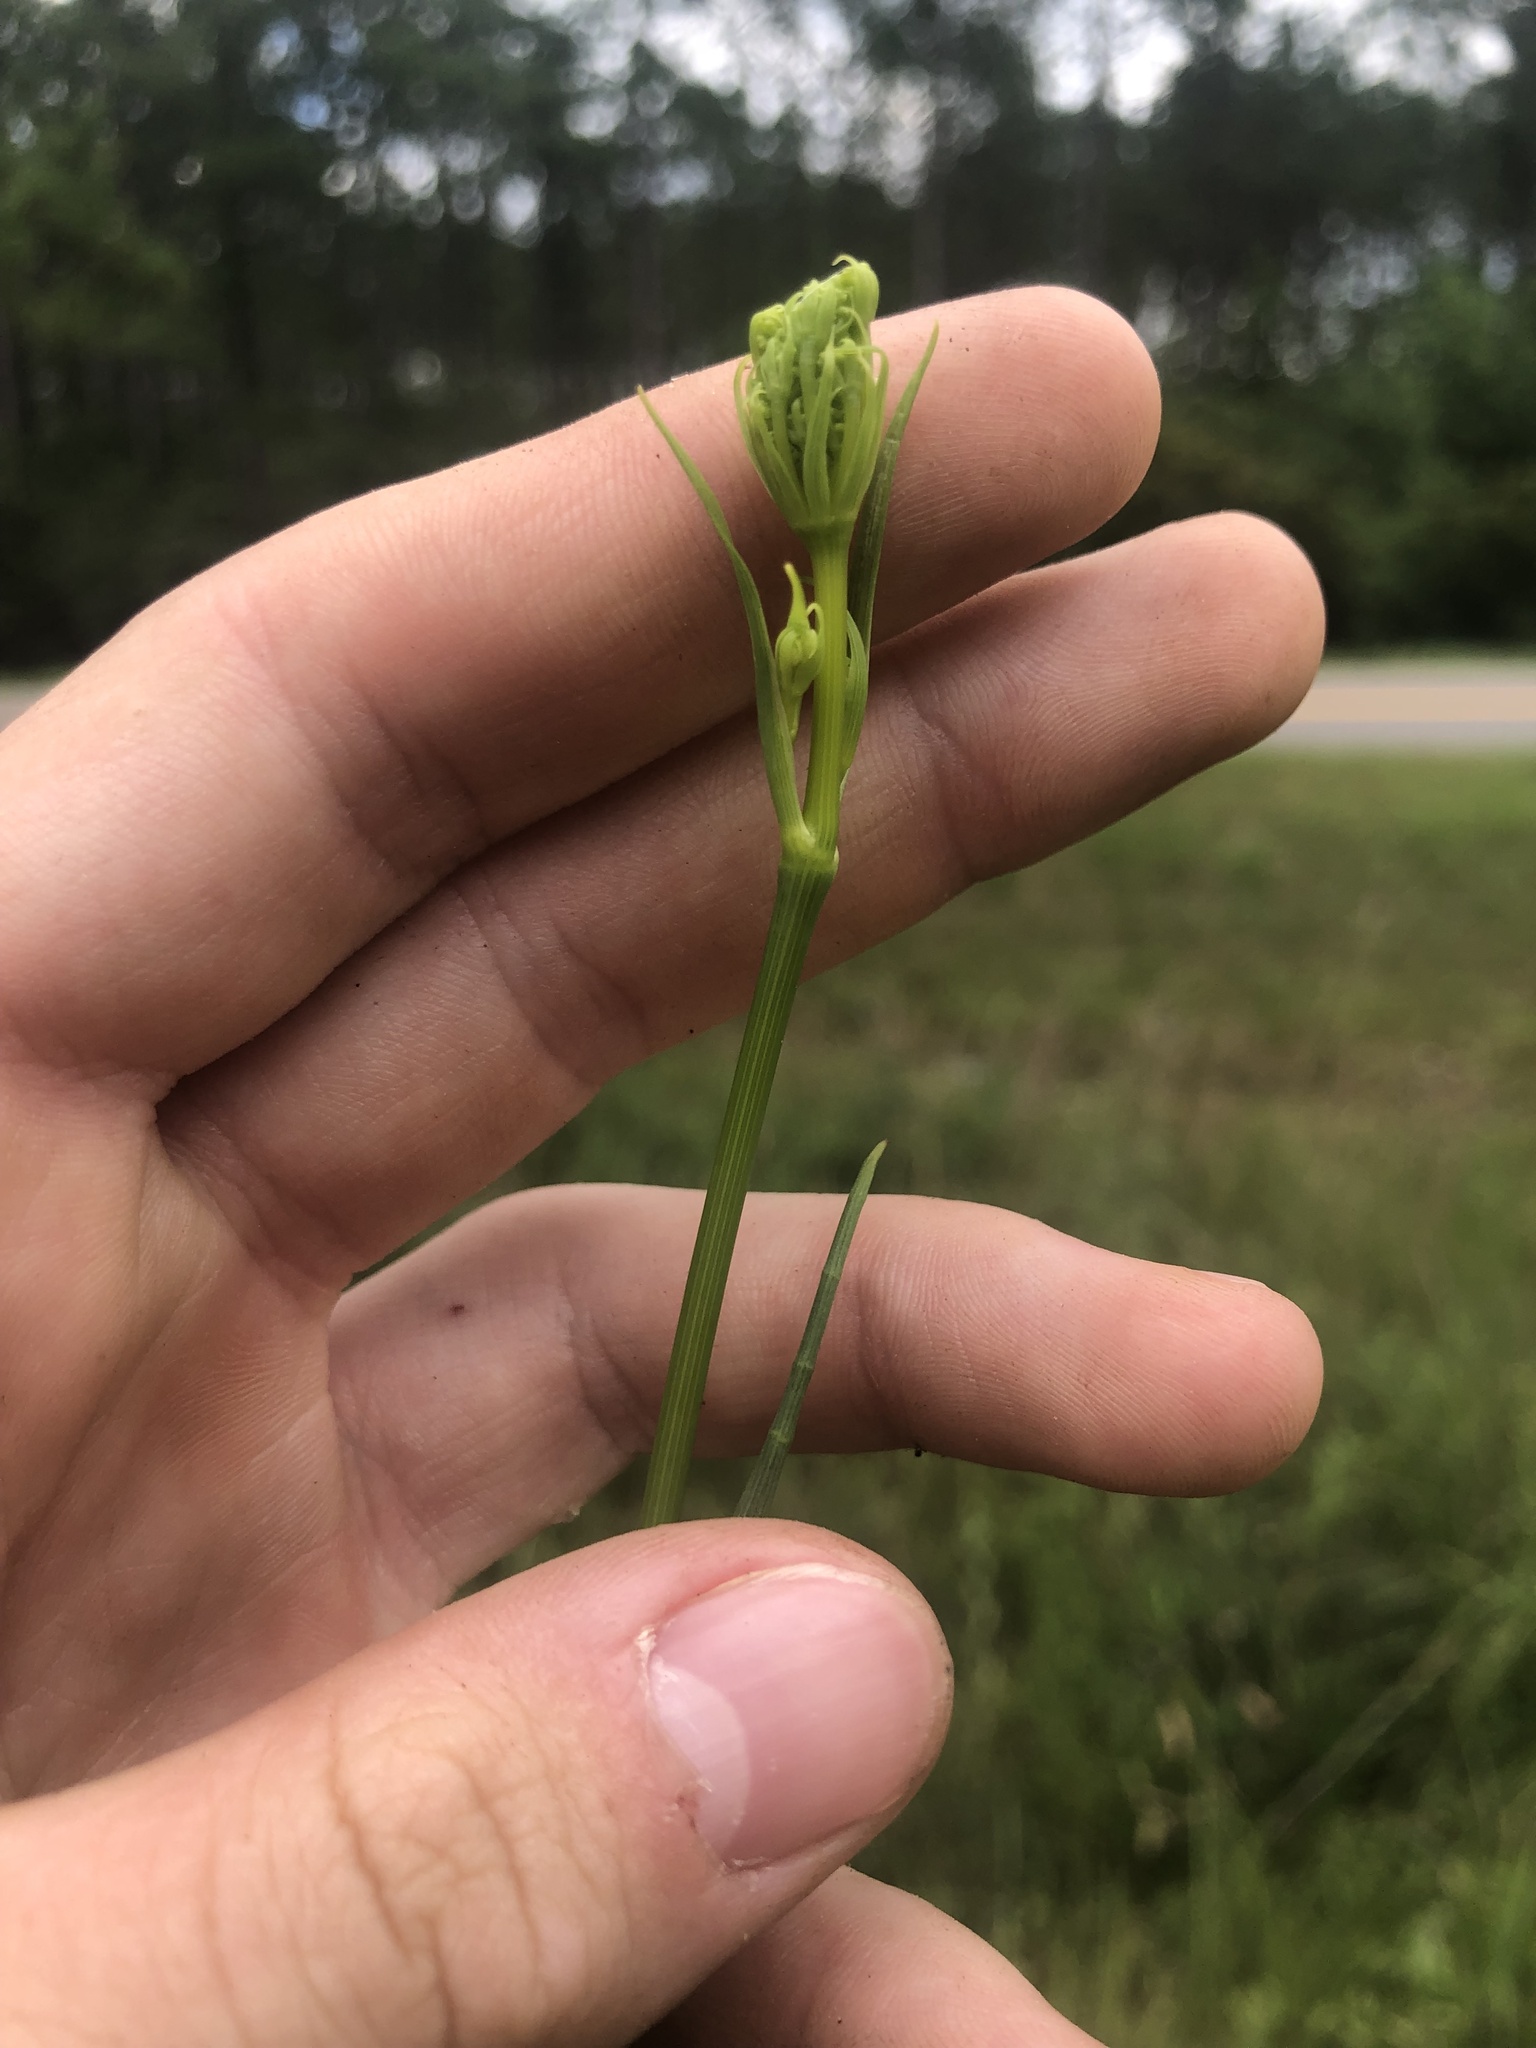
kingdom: Plantae
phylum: Tracheophyta
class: Magnoliopsida
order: Apiales
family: Apiaceae
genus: Tiedemannia
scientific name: Tiedemannia filiformis
